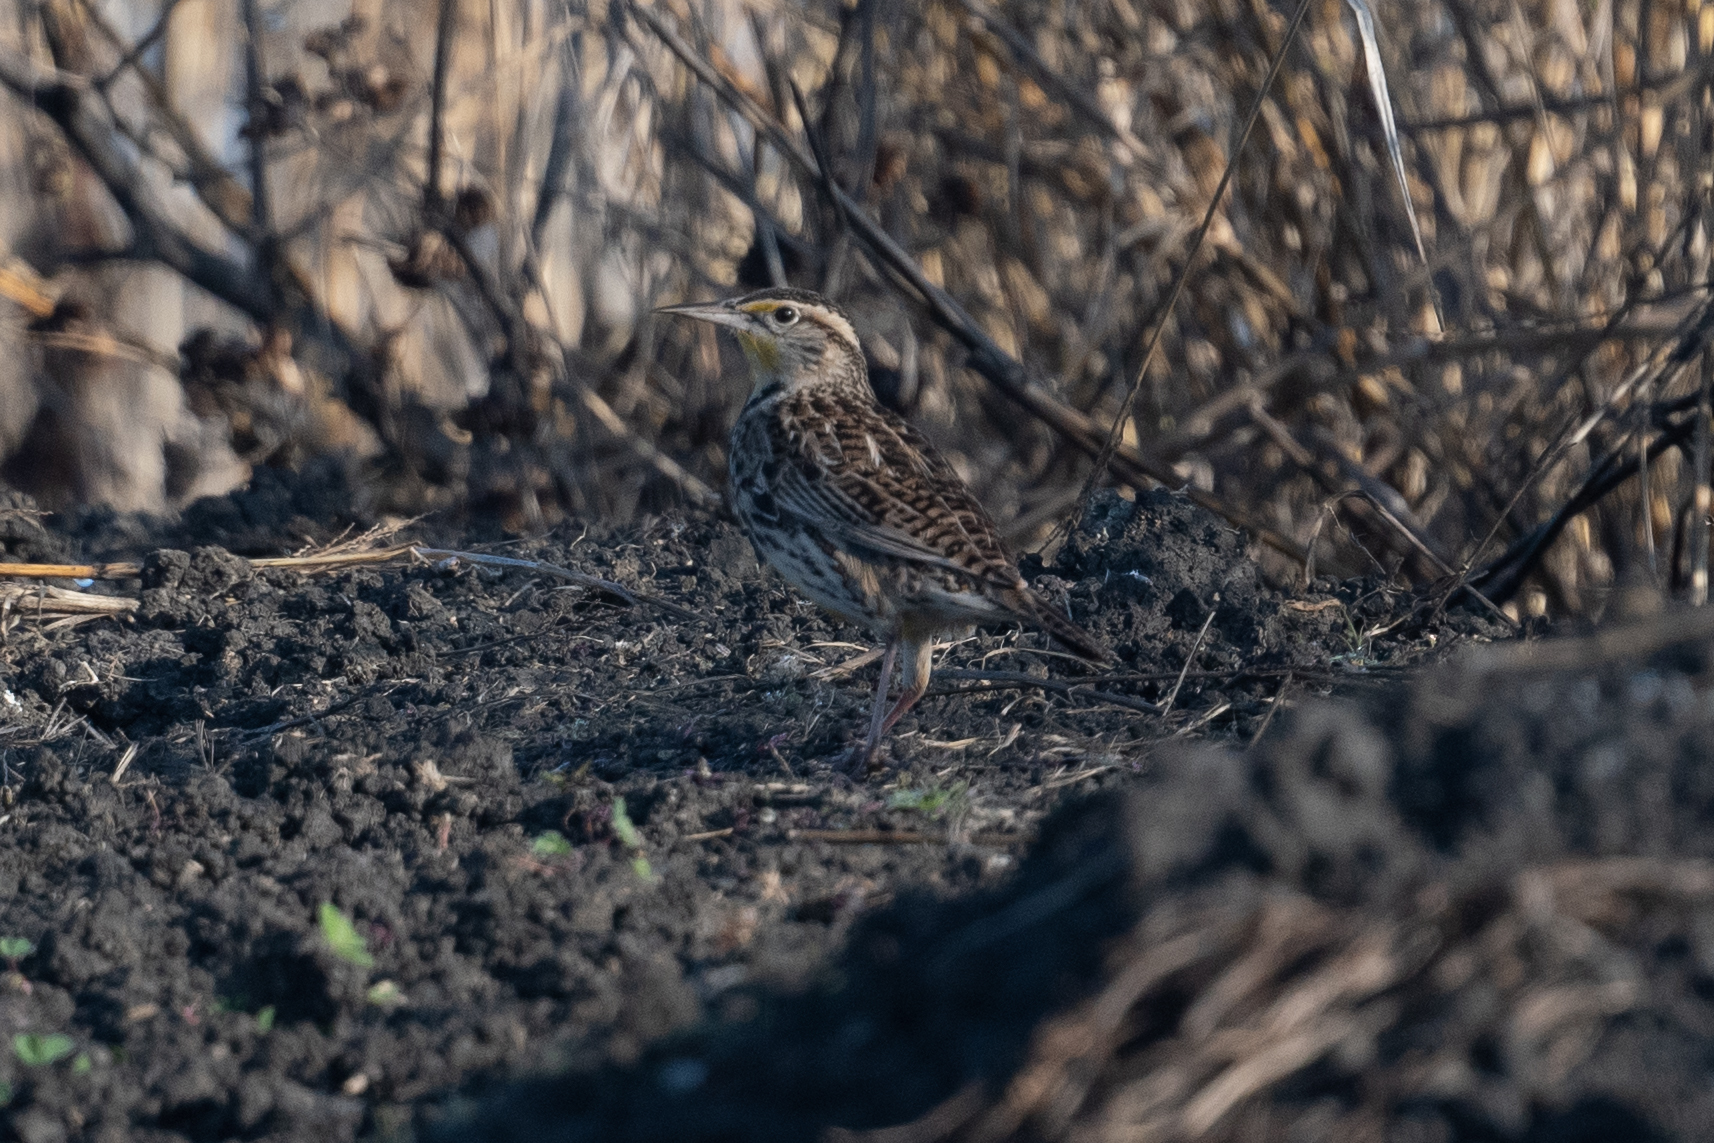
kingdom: Animalia
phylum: Chordata
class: Aves
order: Passeriformes
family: Icteridae
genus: Sturnella
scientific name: Sturnella neglecta
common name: Western meadowlark
